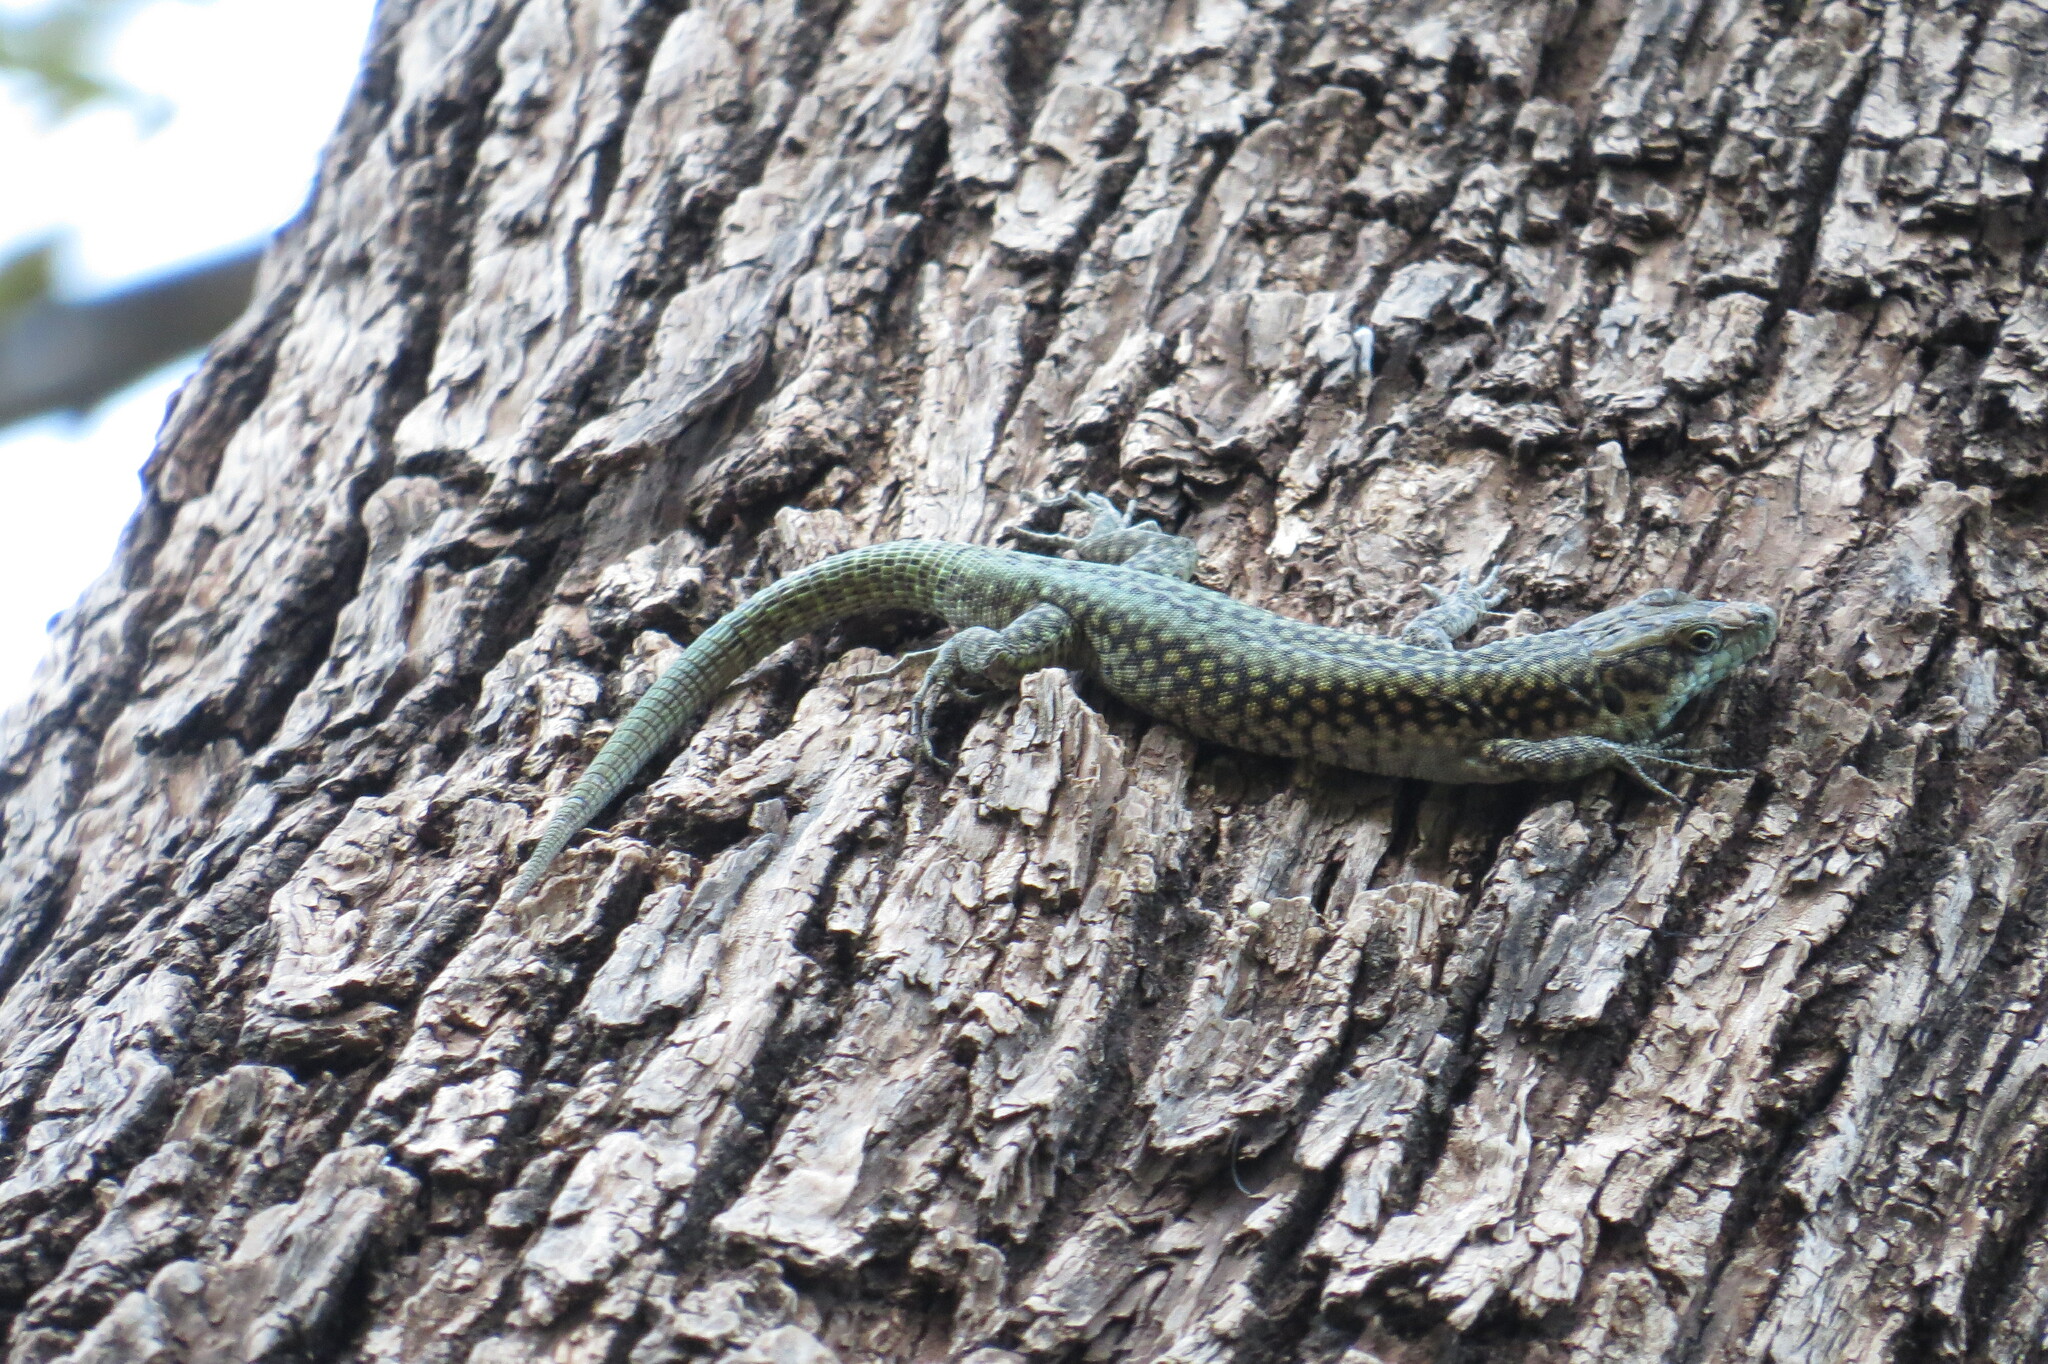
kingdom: Animalia
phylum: Chordata
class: Squamata
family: Lacertidae
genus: Scelarcis
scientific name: Scelarcis perspicillata
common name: Moroccan rock lizard
